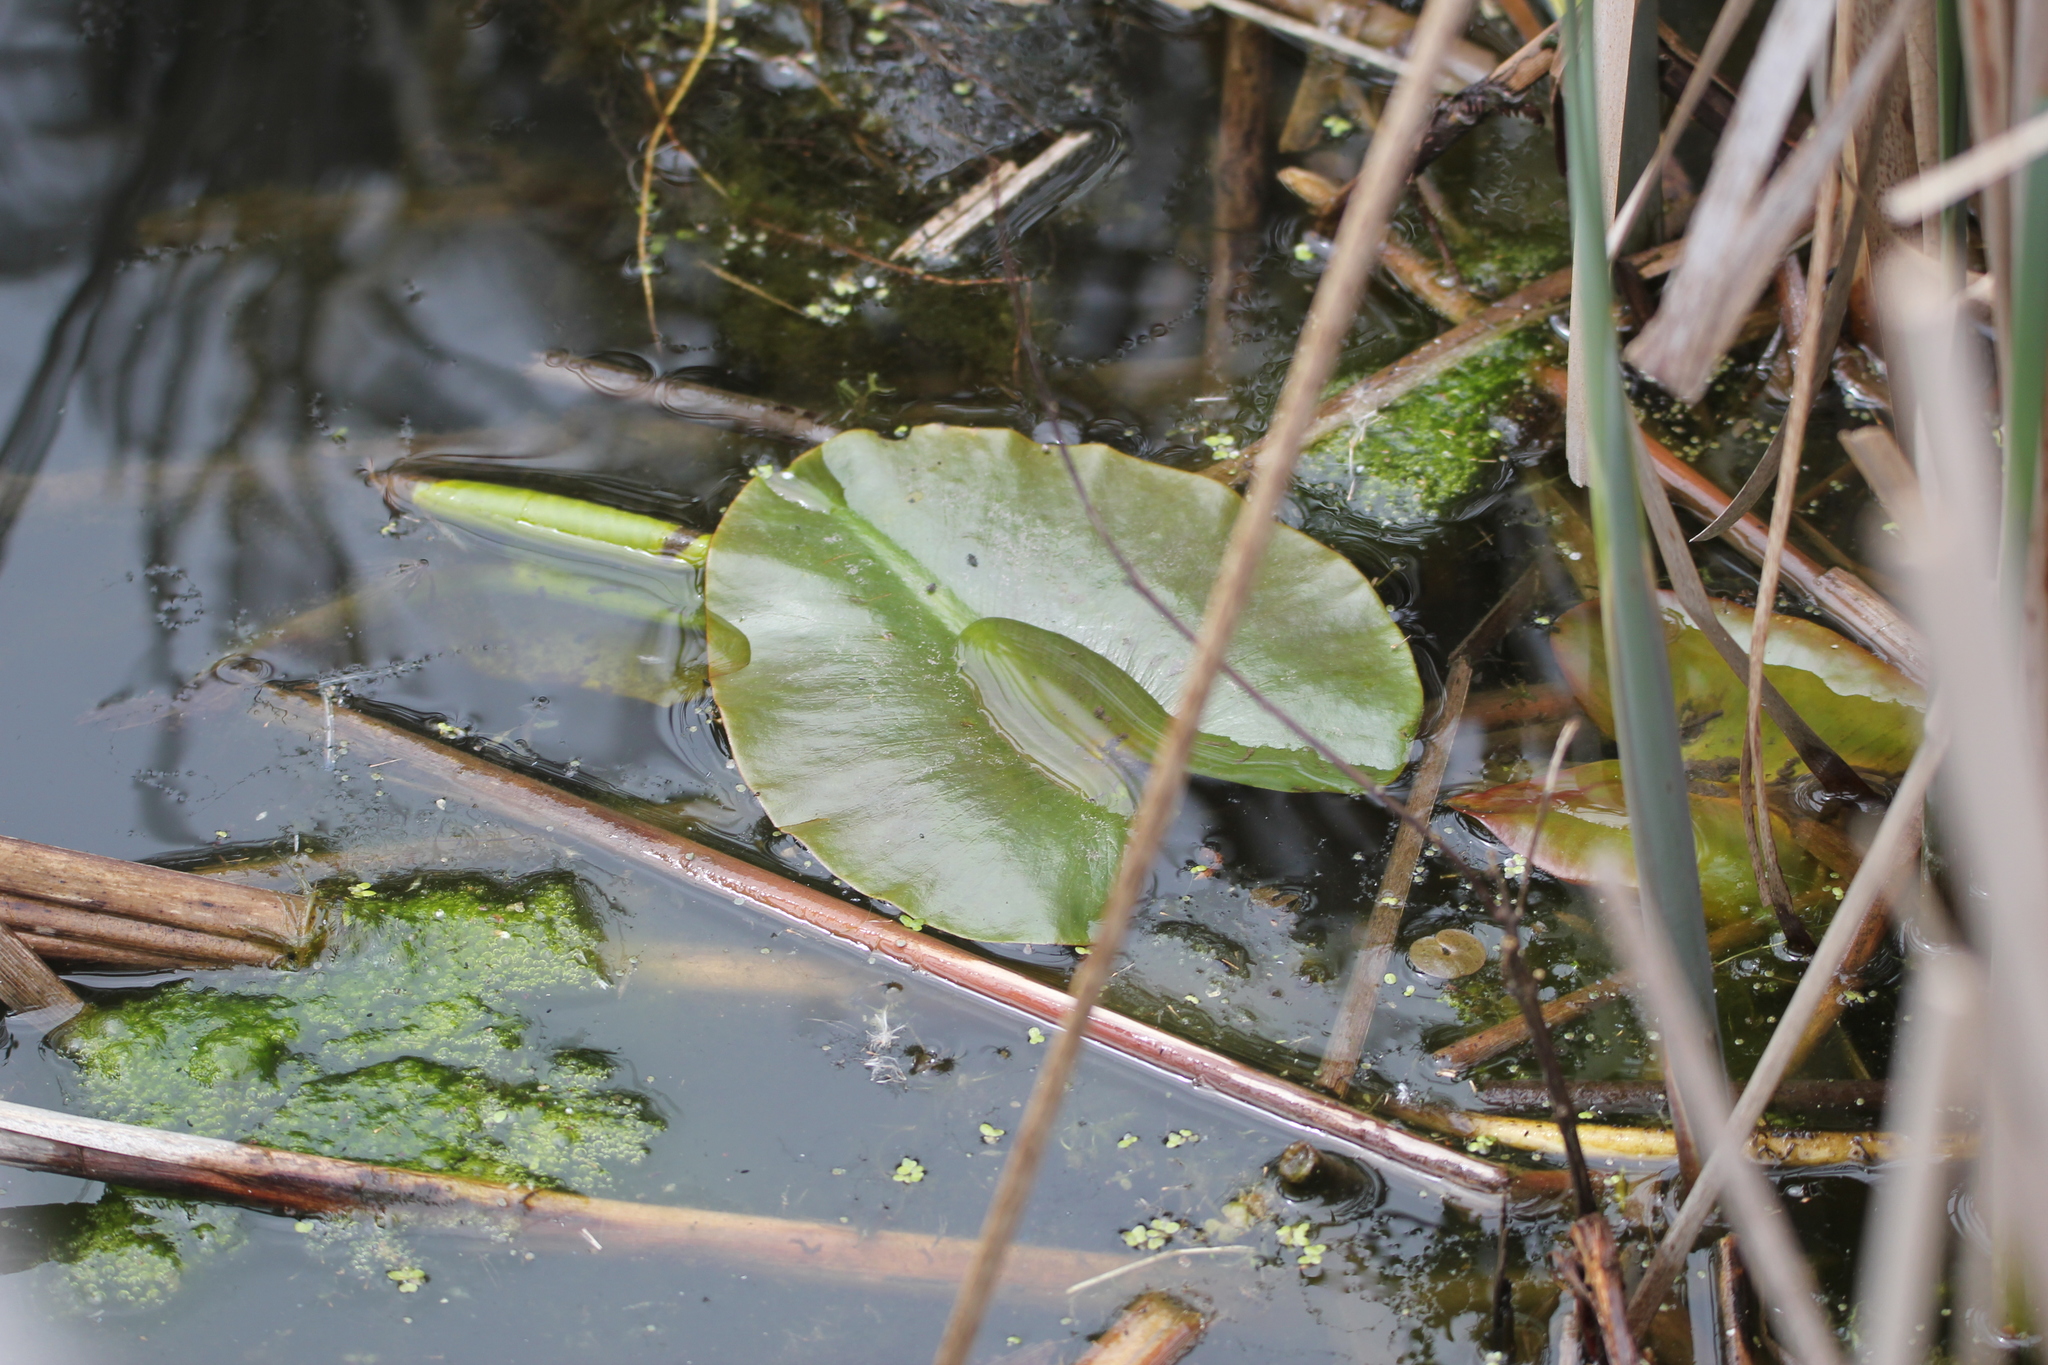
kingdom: Plantae
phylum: Tracheophyta
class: Magnoliopsida
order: Nymphaeales
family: Nymphaeaceae
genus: Nuphar
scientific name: Nuphar variegata
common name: Beaver-root
